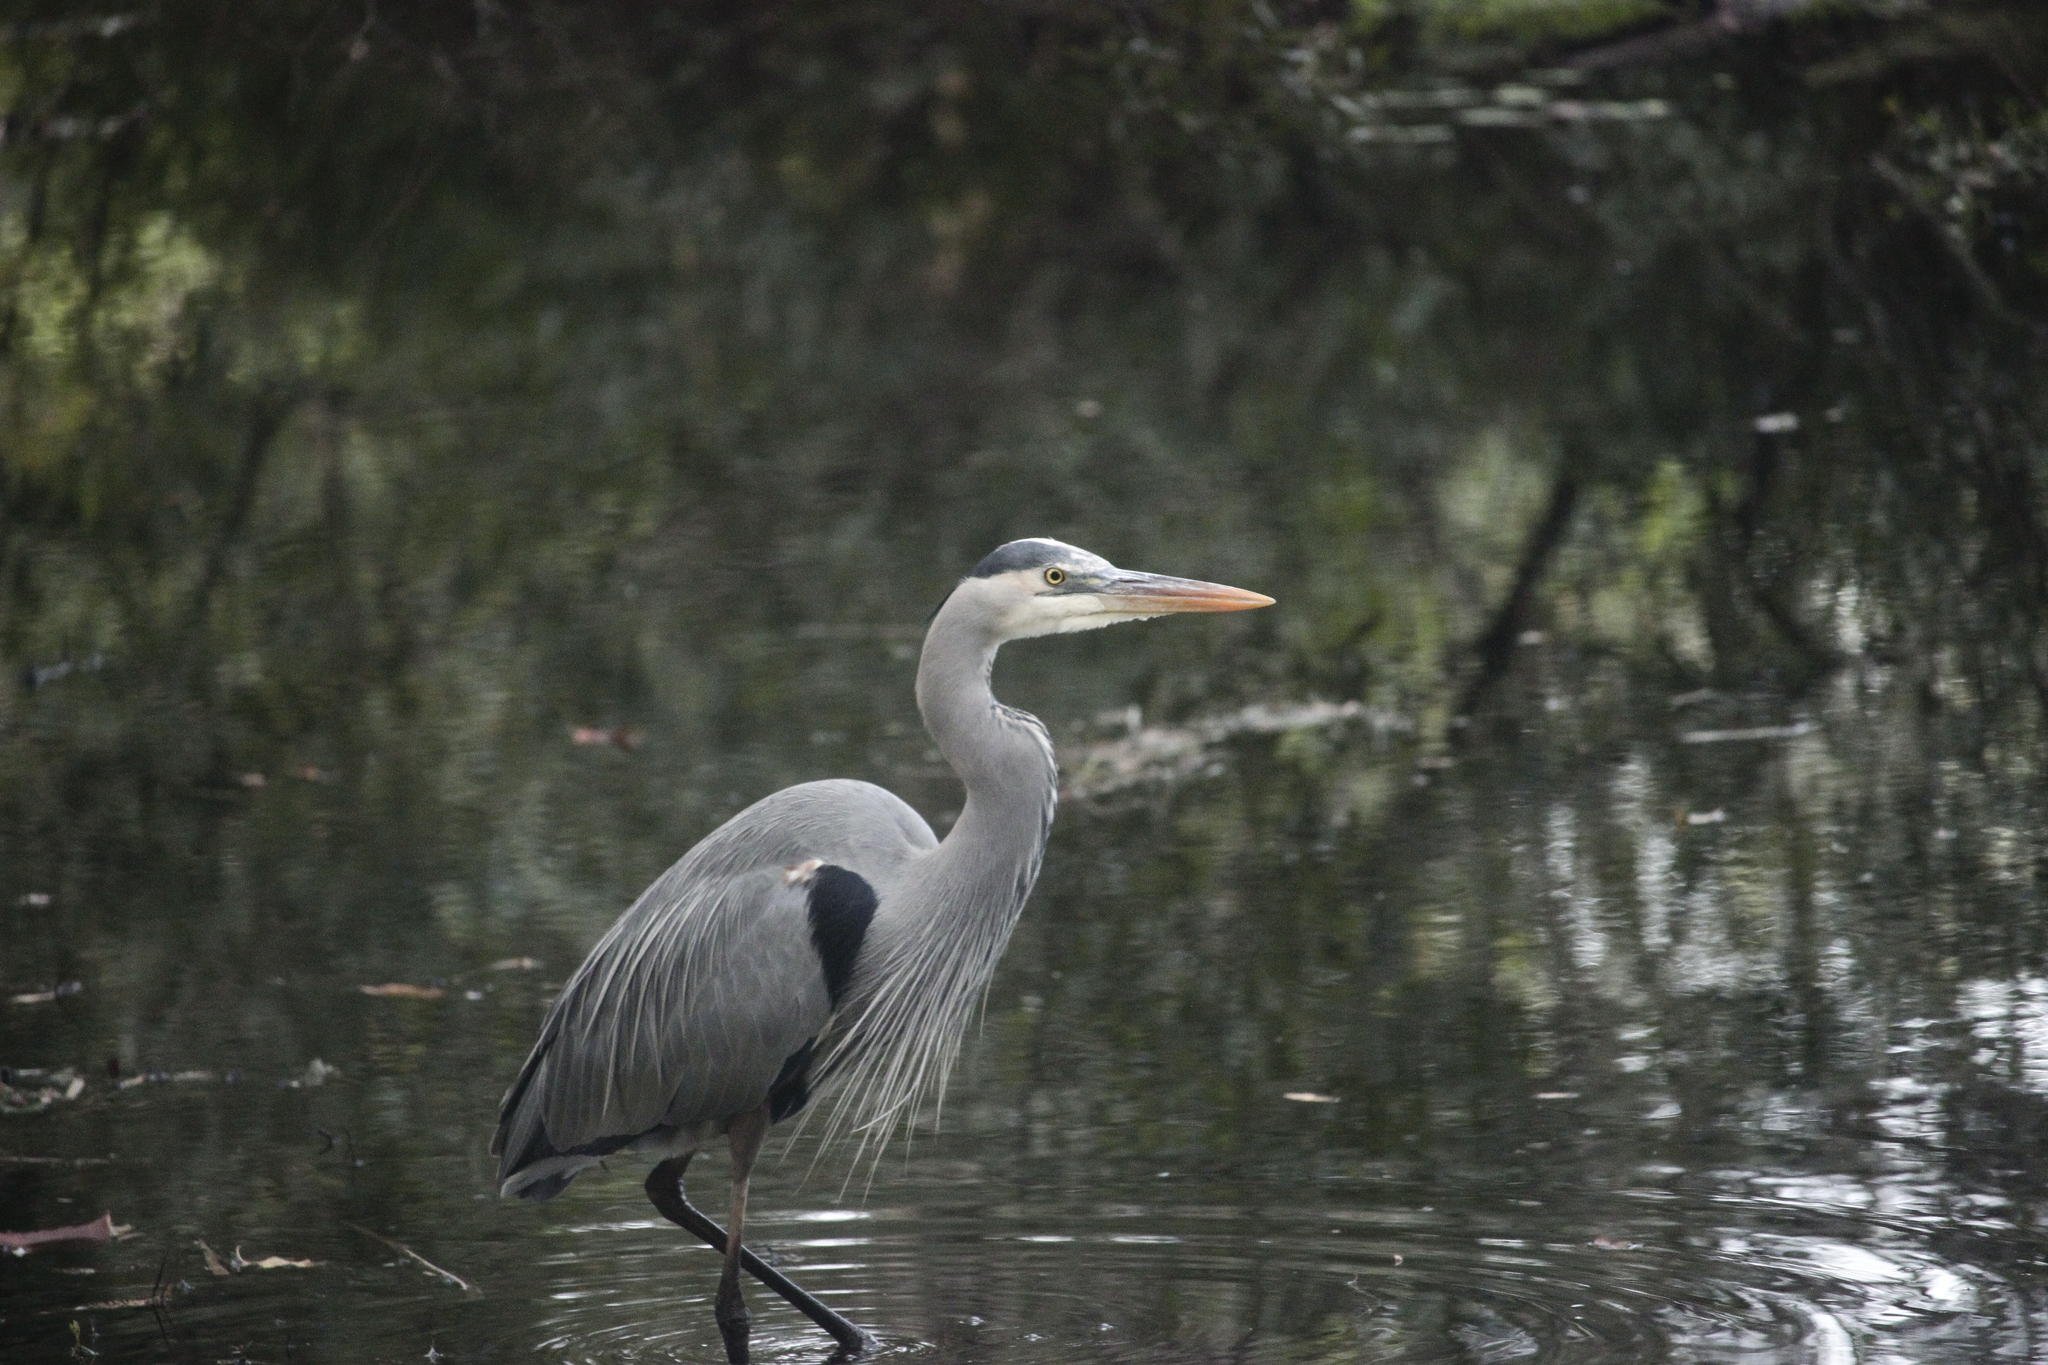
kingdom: Animalia
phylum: Chordata
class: Aves
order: Pelecaniformes
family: Ardeidae
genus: Ardea
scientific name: Ardea herodias
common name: Great blue heron
